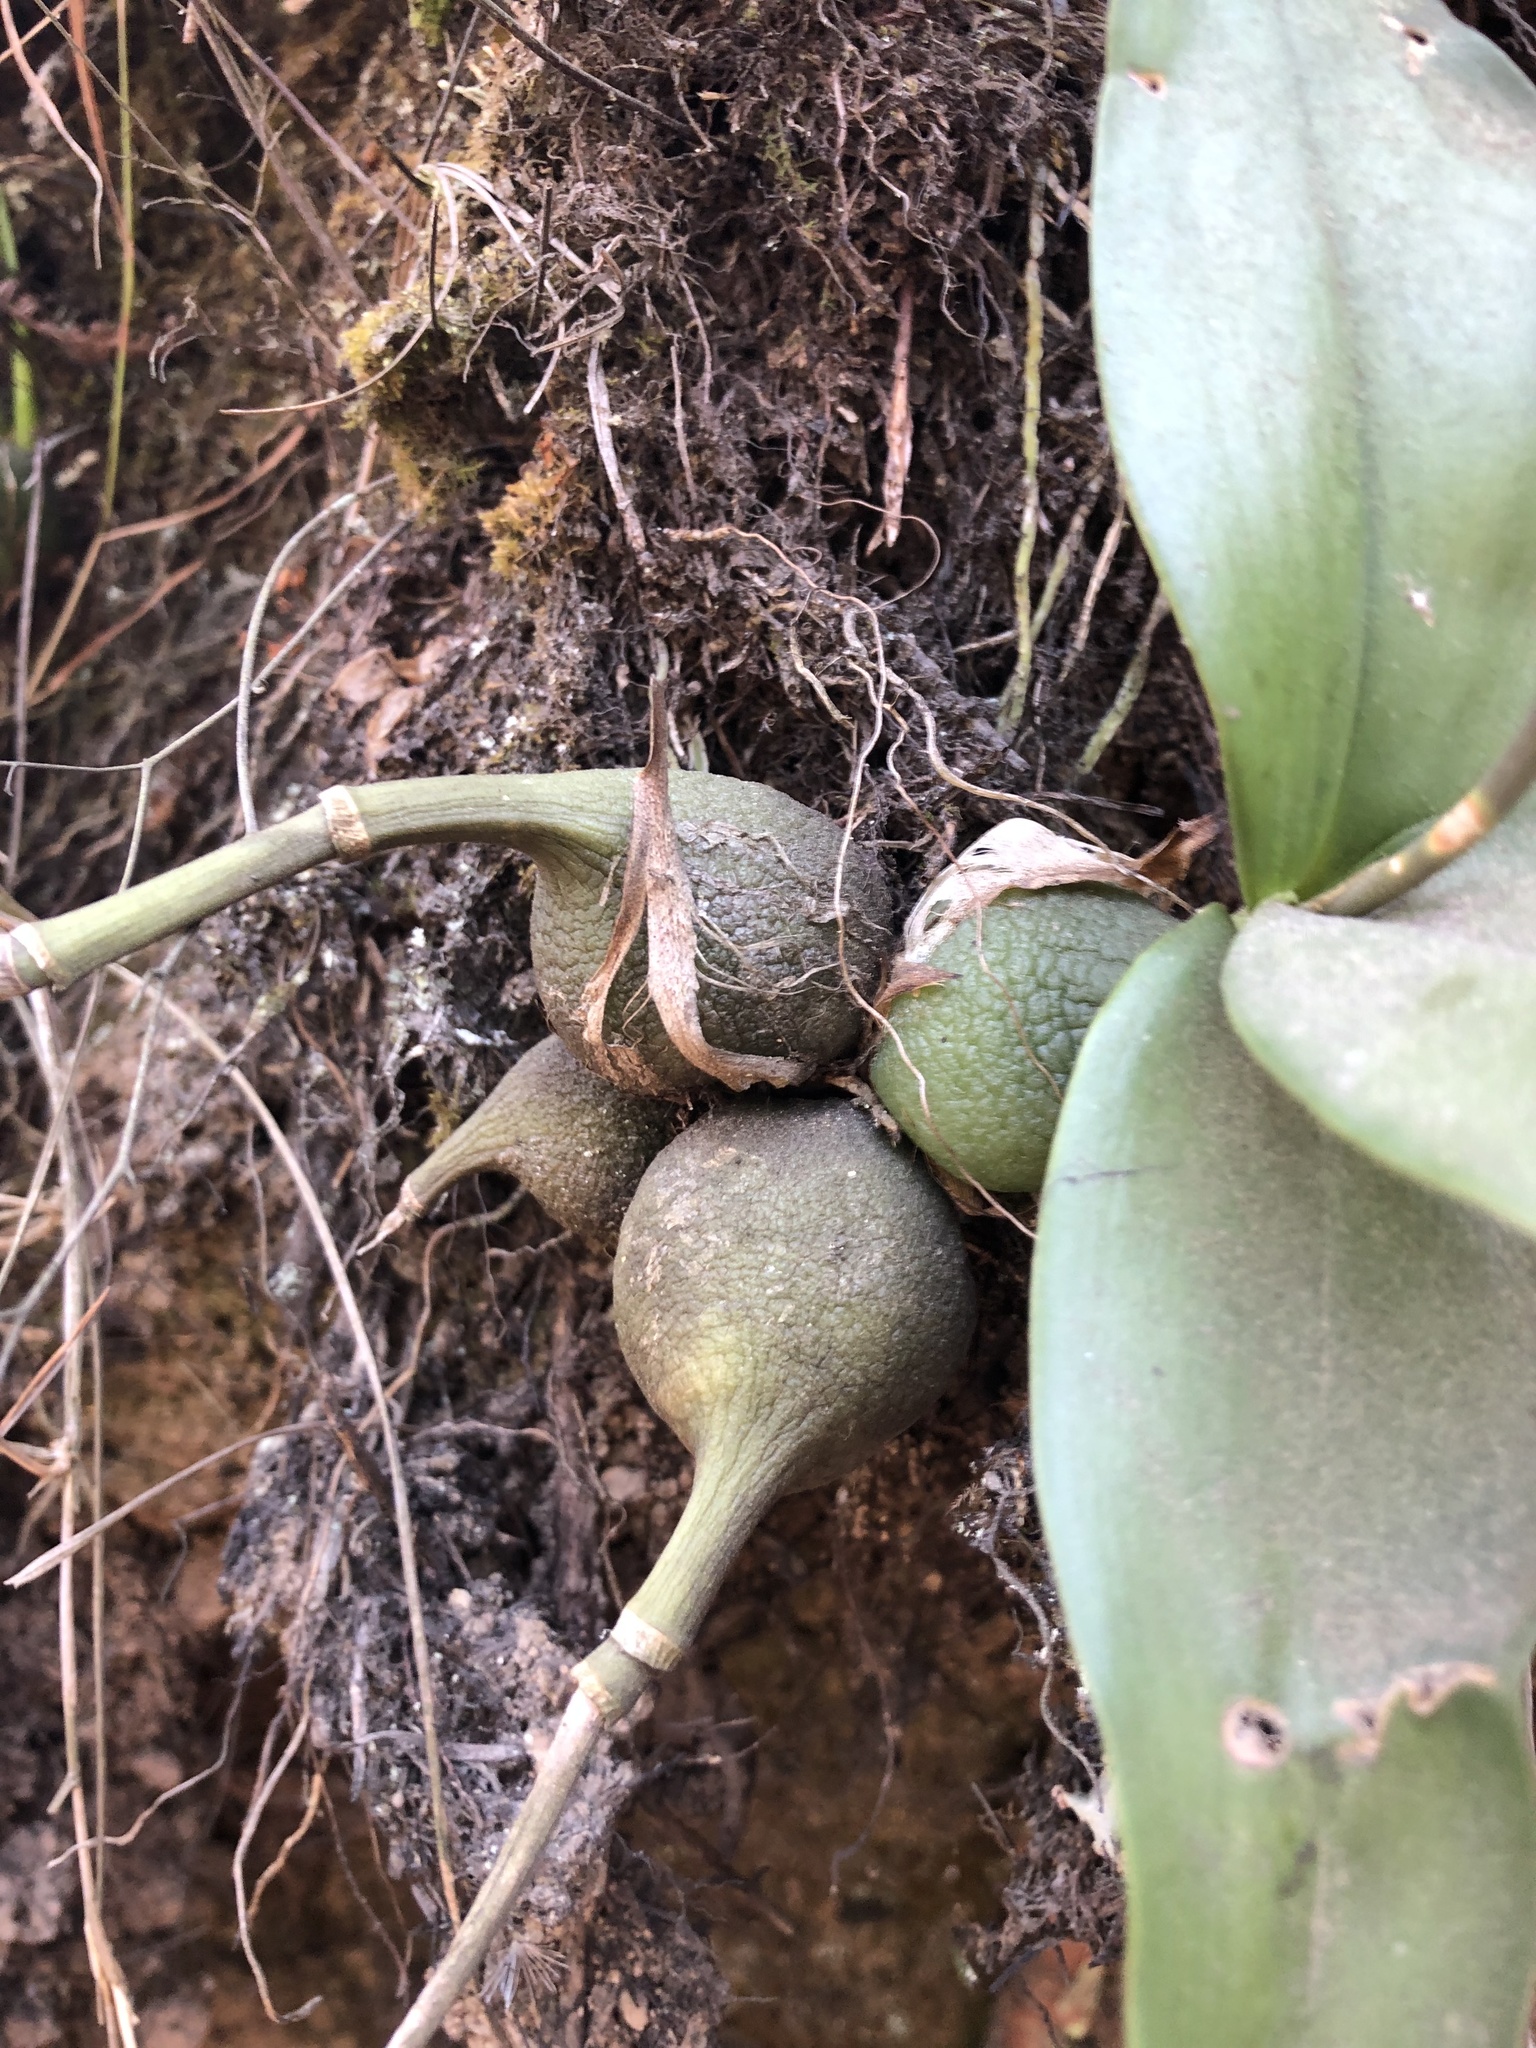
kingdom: Plantae
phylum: Tracheophyta
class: Liliopsida
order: Asparagales
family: Orchidaceae
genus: Prosthechea
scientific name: Prosthechea varicosa
